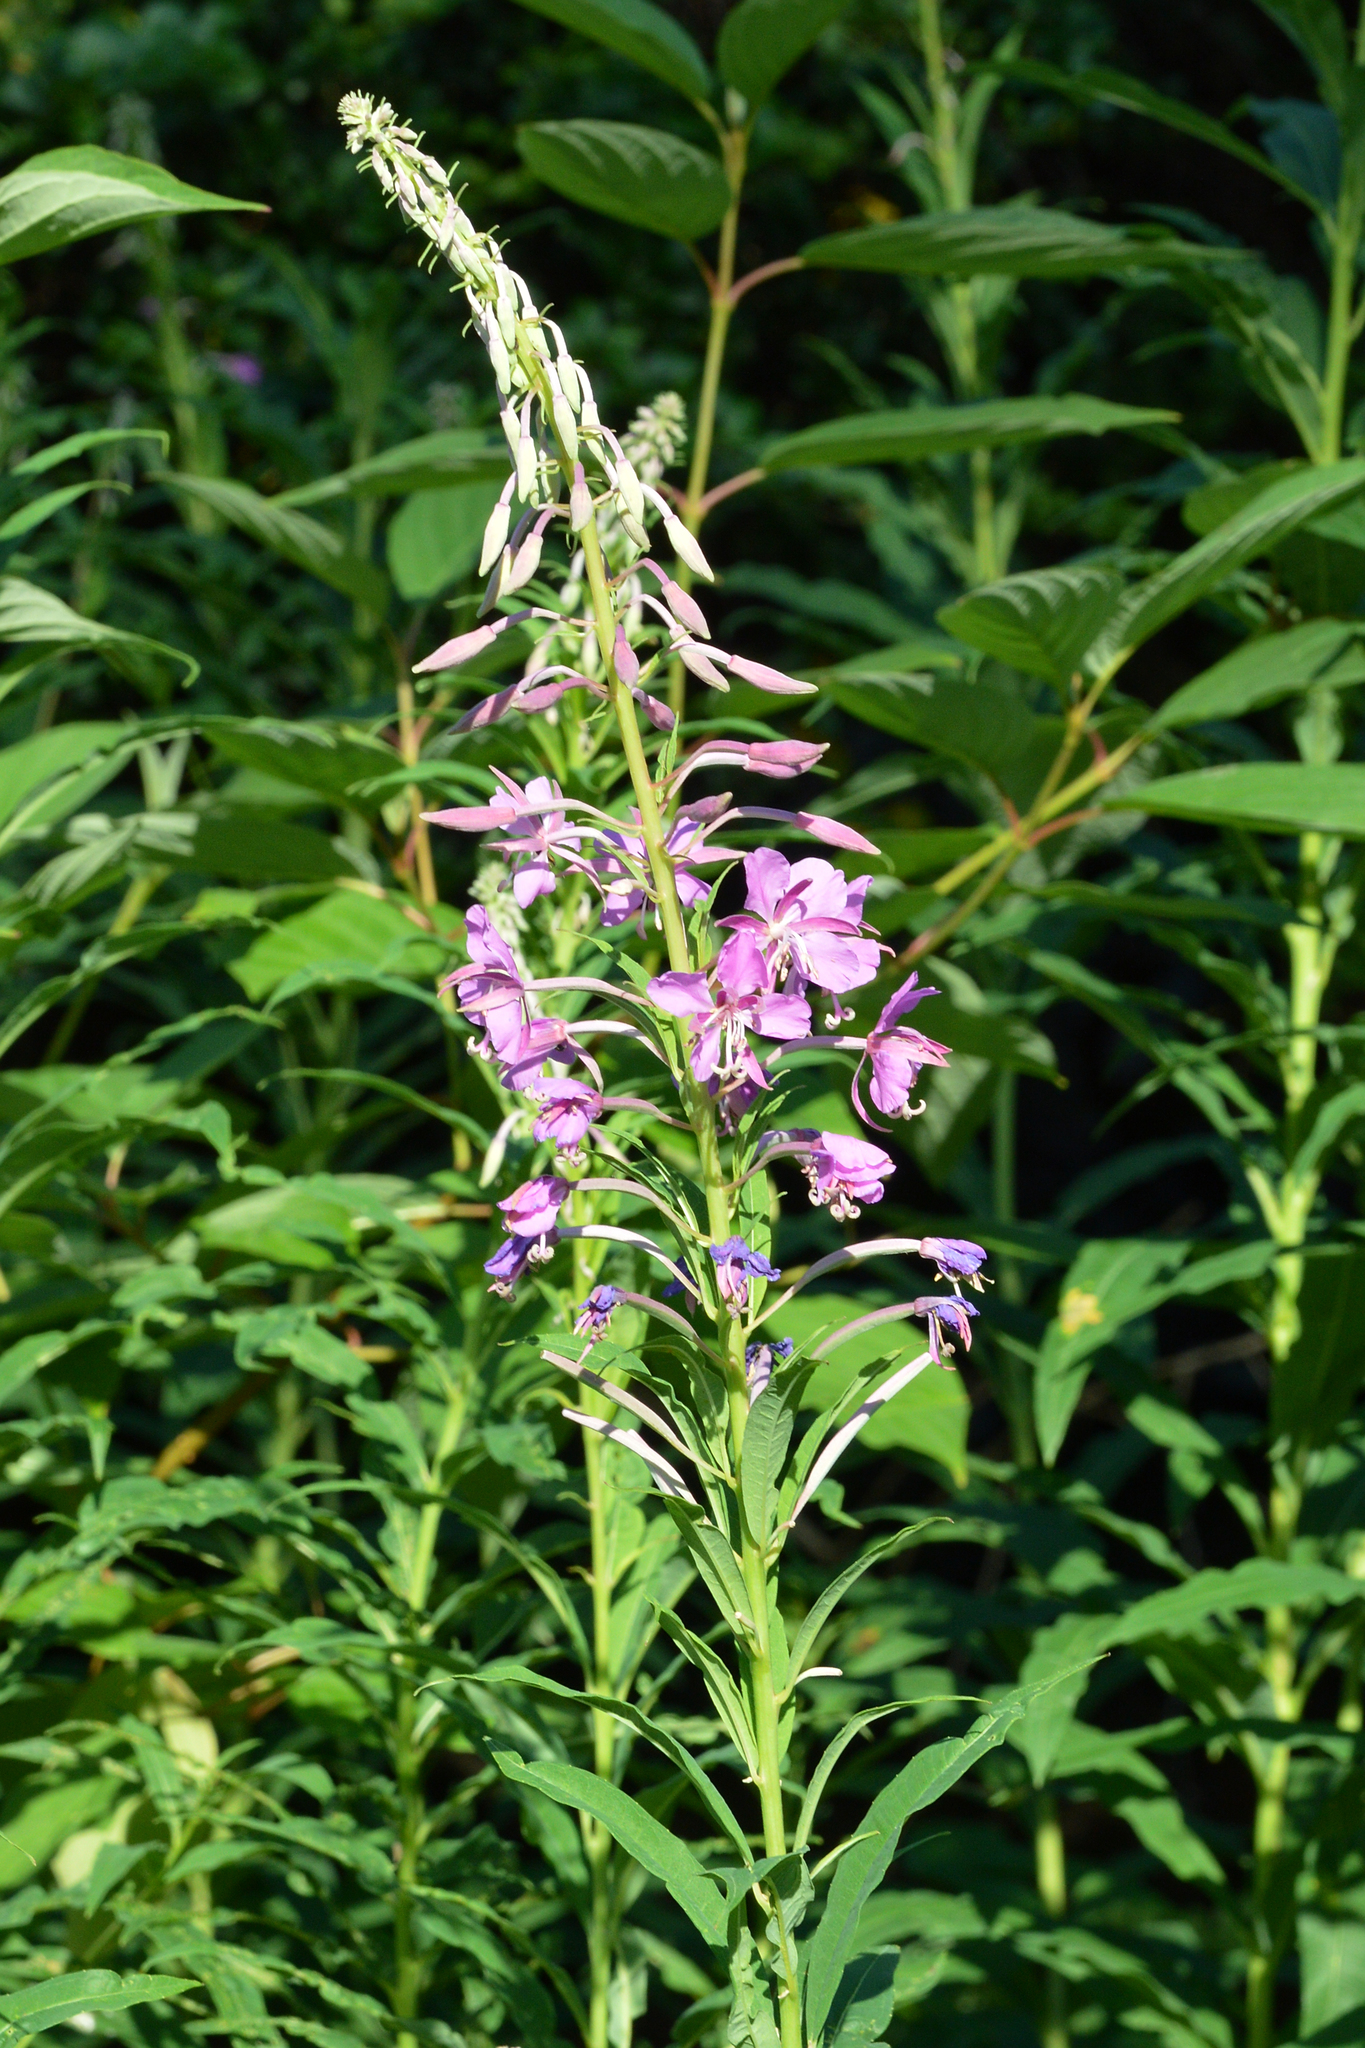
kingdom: Plantae
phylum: Tracheophyta
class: Magnoliopsida
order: Myrtales
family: Onagraceae
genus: Chamaenerion
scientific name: Chamaenerion angustifolium
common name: Fireweed
